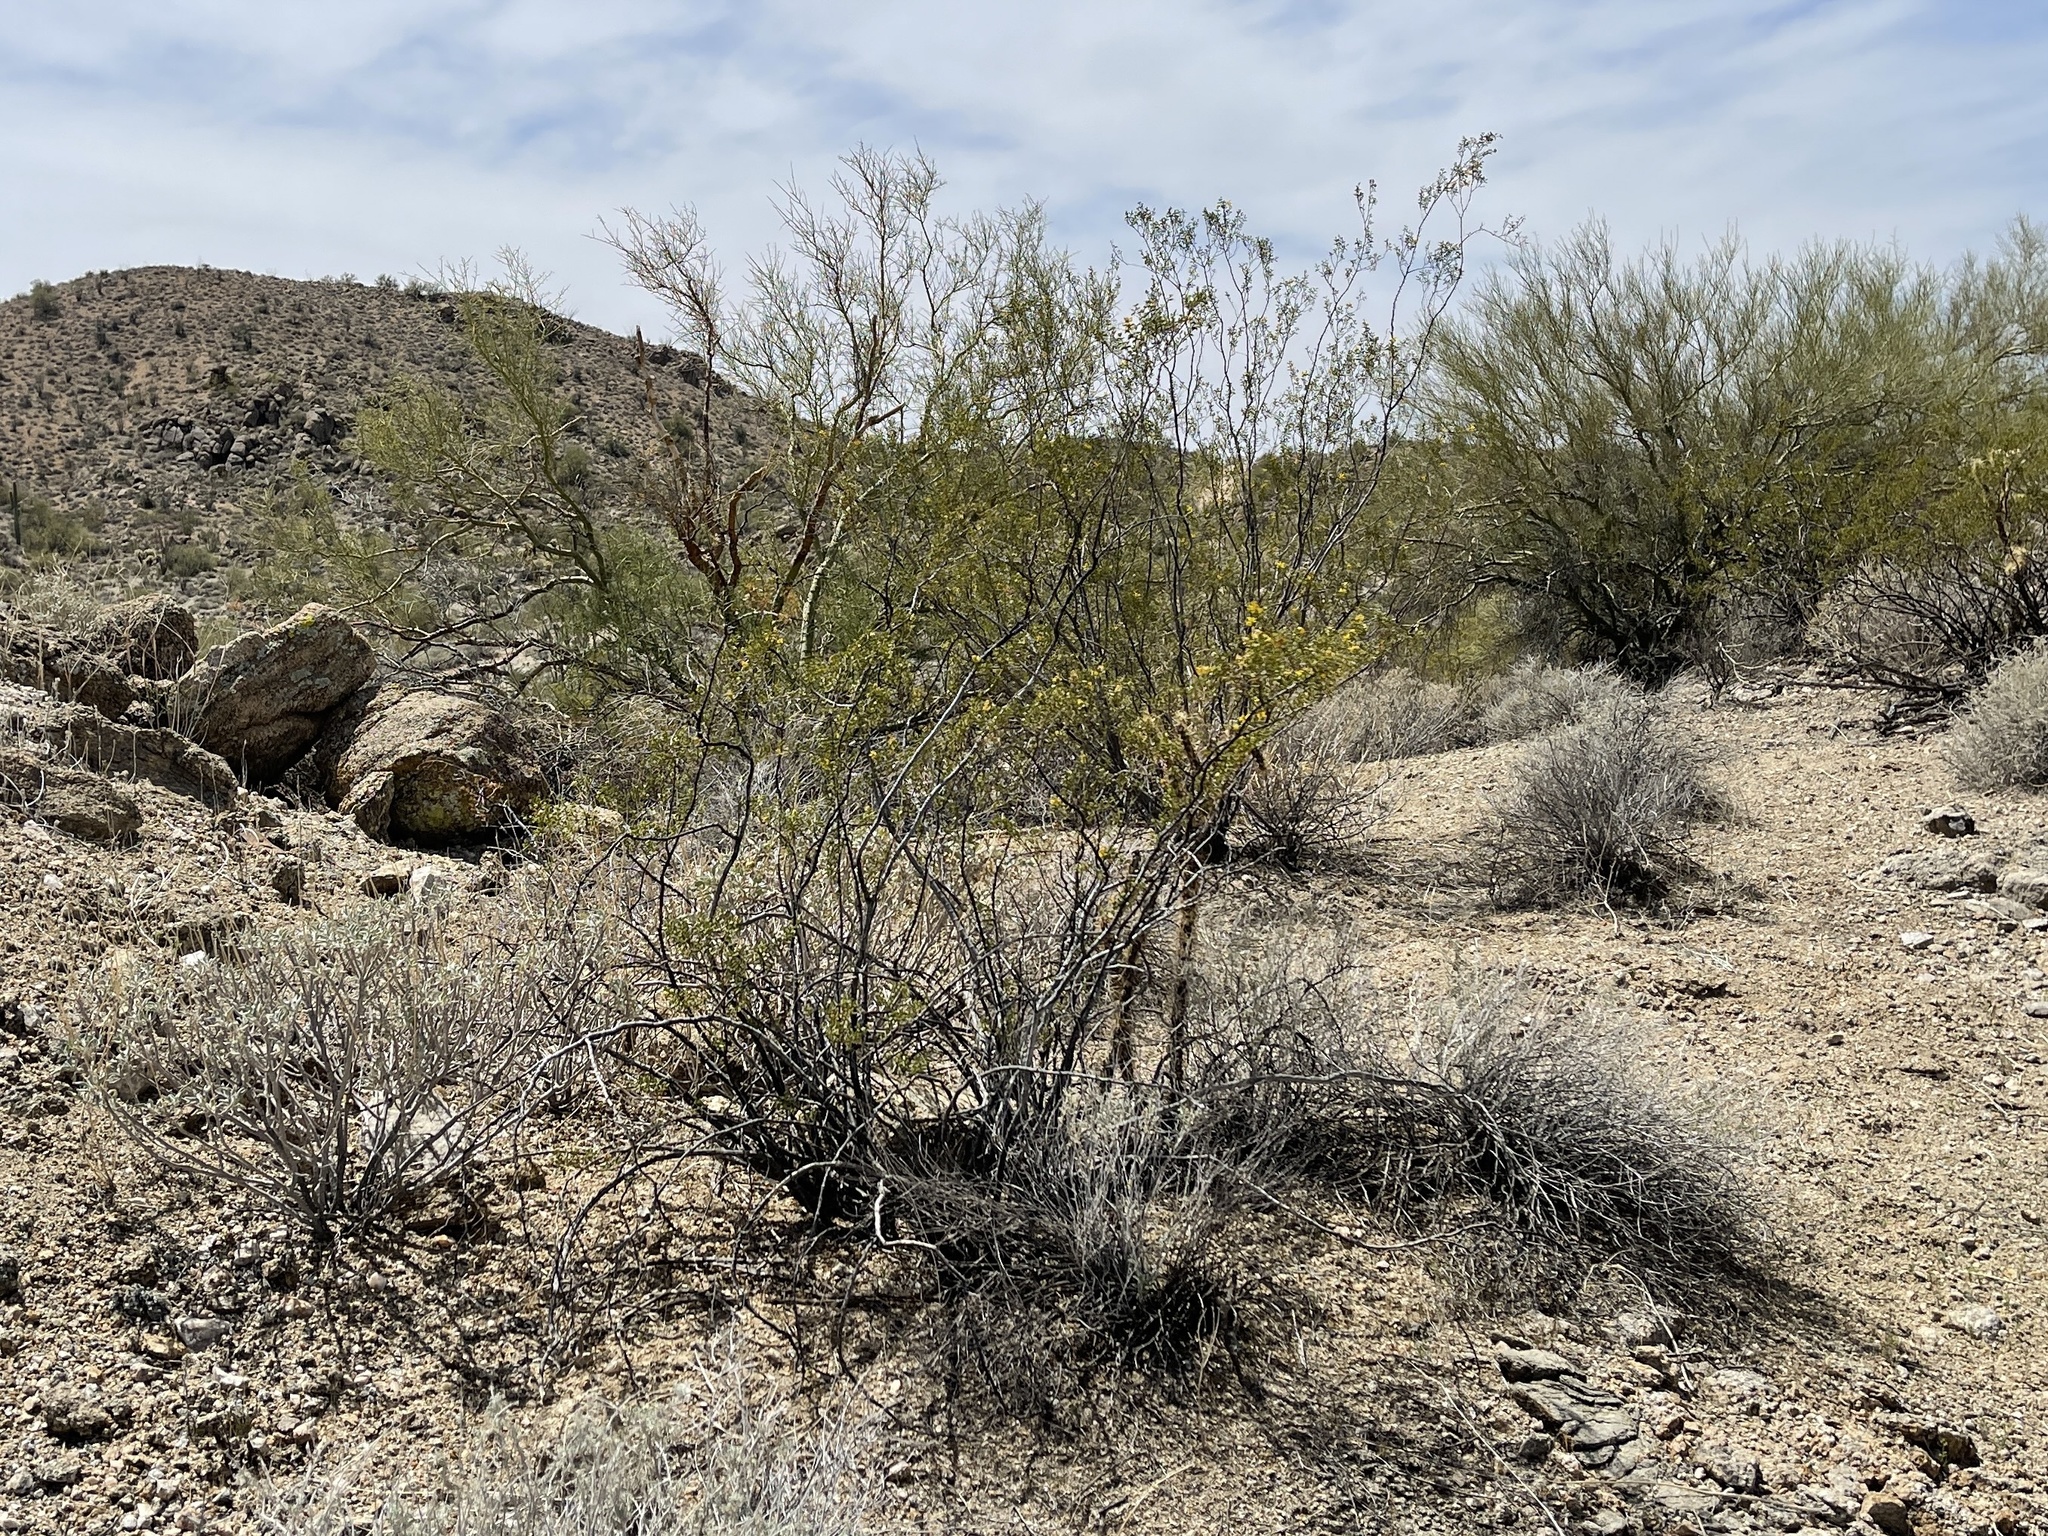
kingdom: Plantae
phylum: Tracheophyta
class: Magnoliopsida
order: Zygophyllales
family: Zygophyllaceae
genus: Larrea
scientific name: Larrea tridentata
